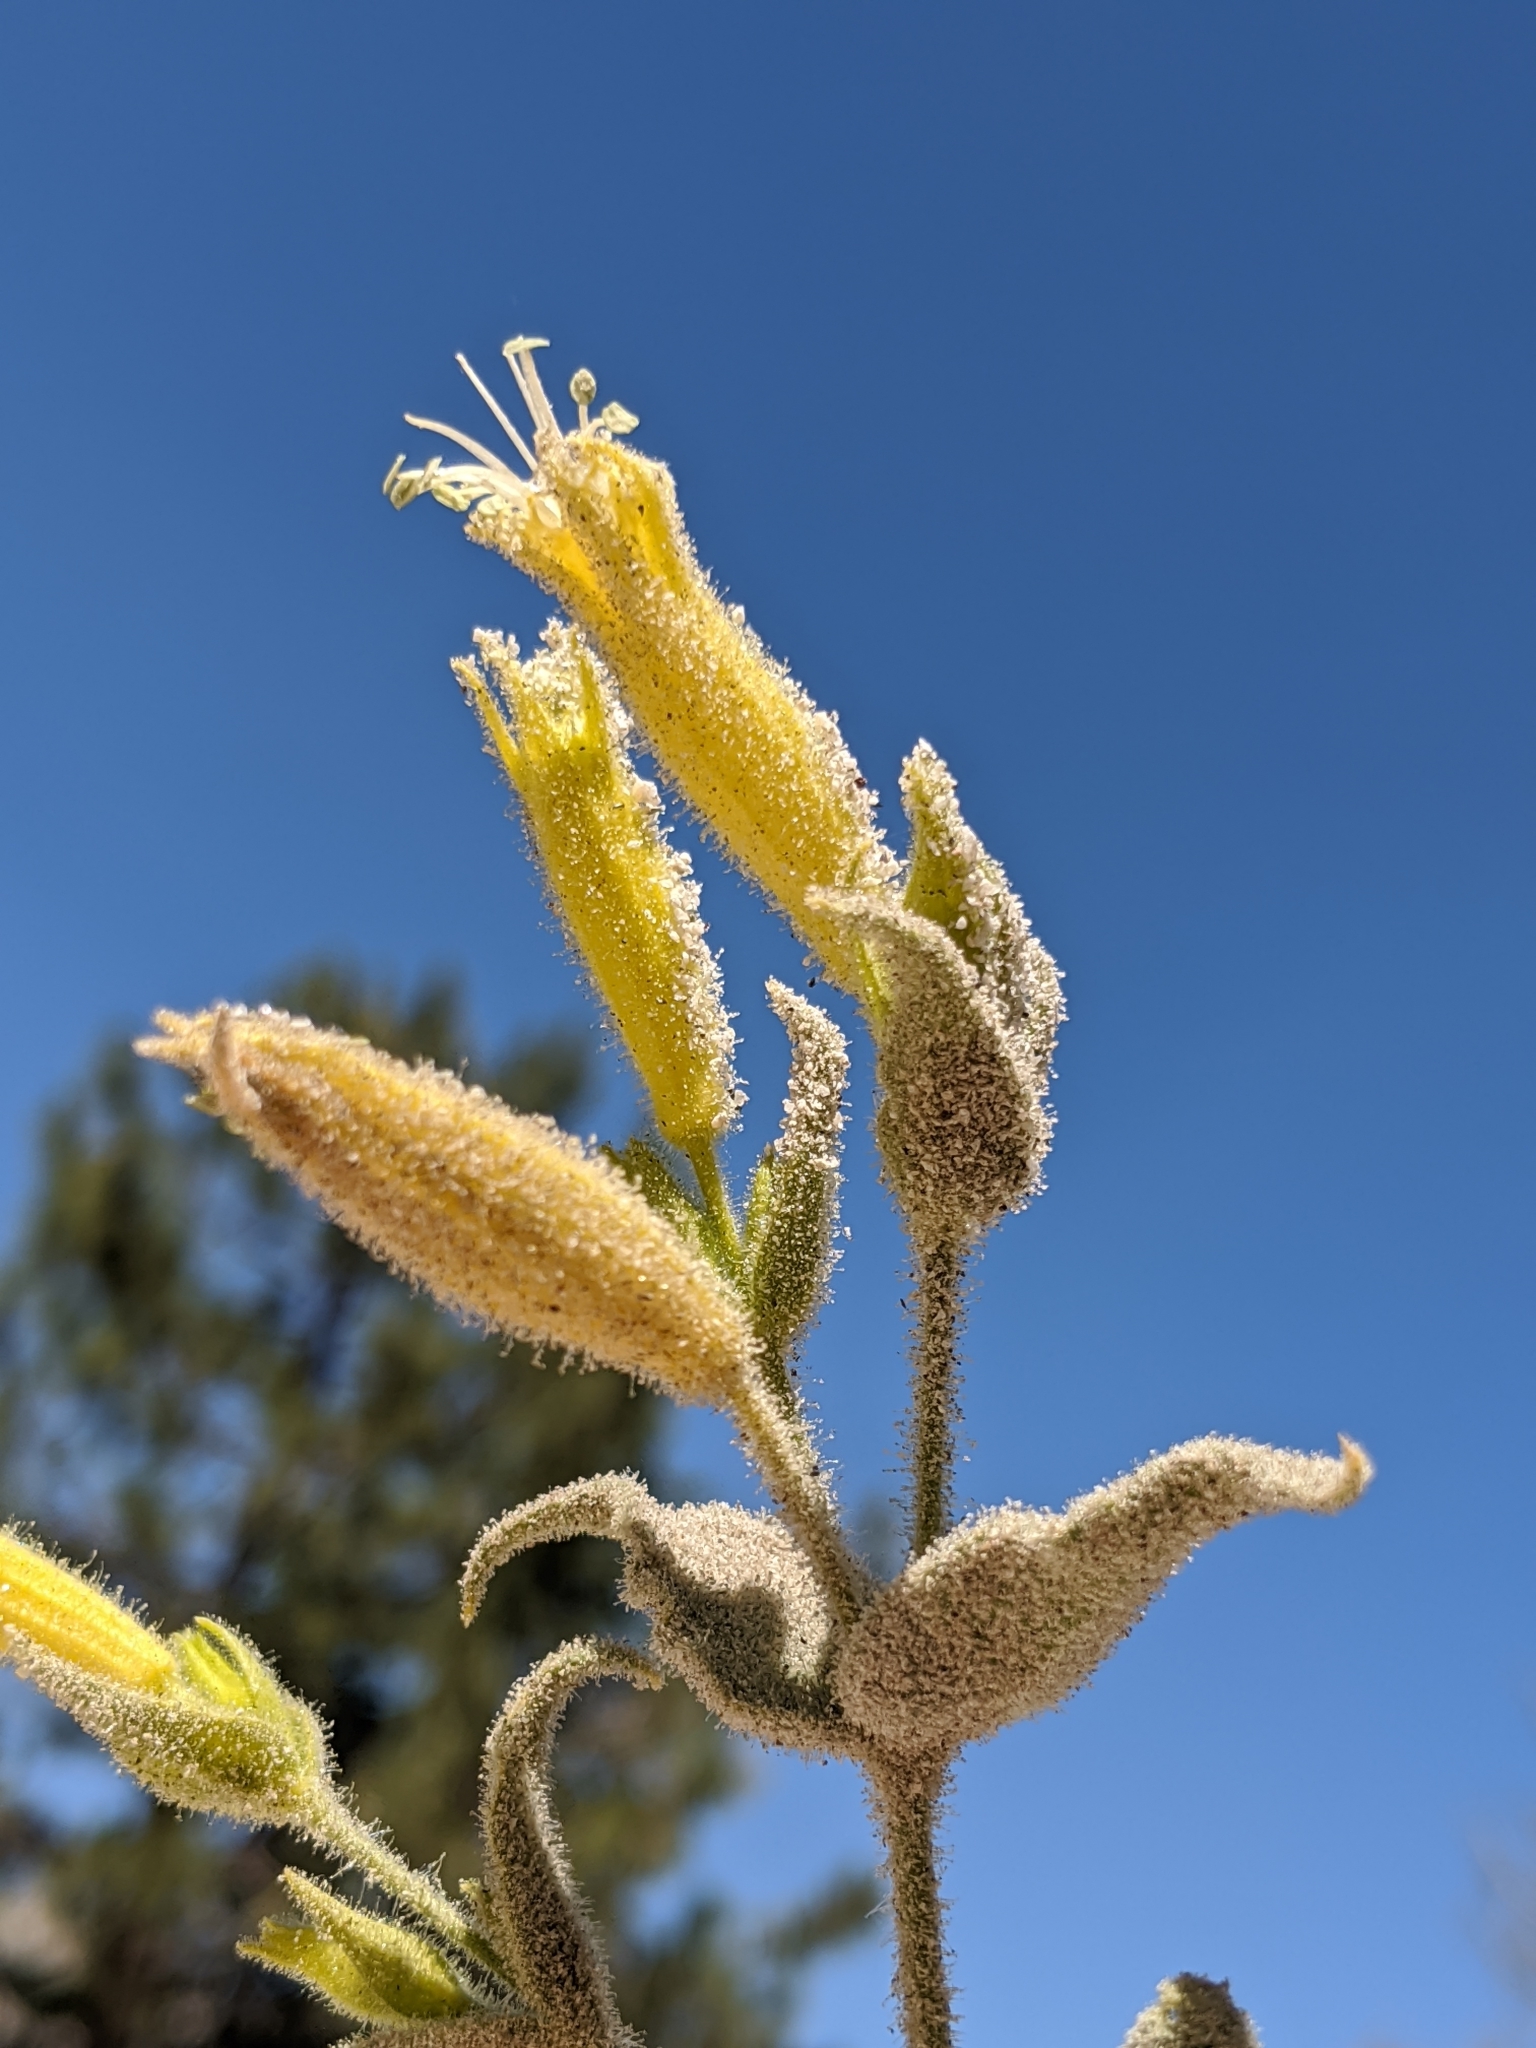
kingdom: Plantae
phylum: Tracheophyta
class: Magnoliopsida
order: Caryophyllales
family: Caryophyllaceae
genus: Silene
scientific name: Silene parishii
